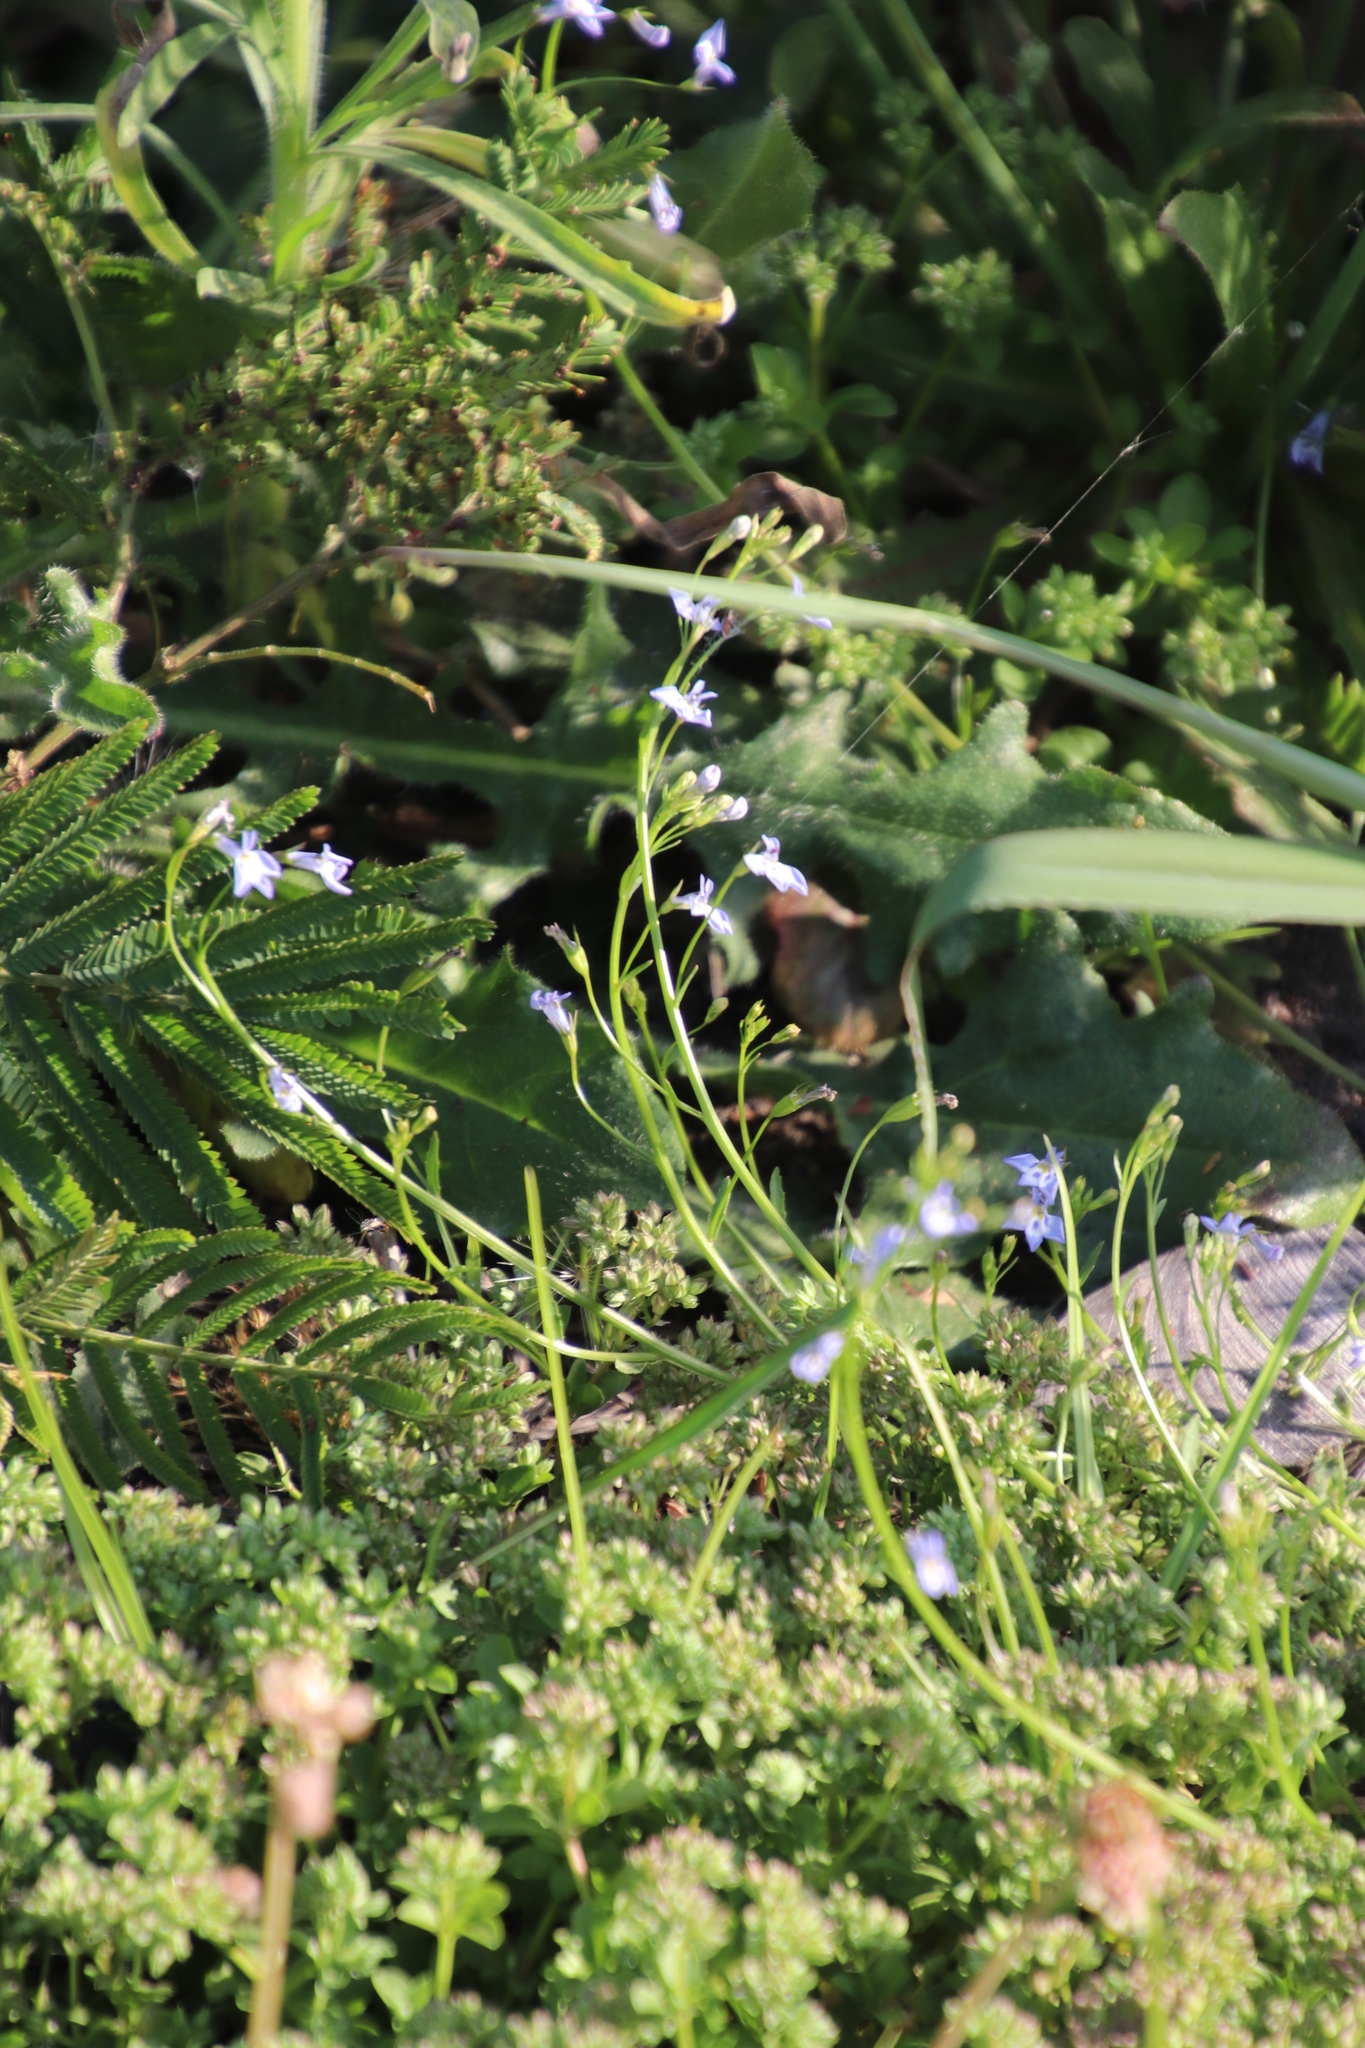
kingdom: Plantae
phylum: Tracheophyta
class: Magnoliopsida
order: Asterales
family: Campanulaceae
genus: Lobelia
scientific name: Lobelia erinus
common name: Edging lobelia
